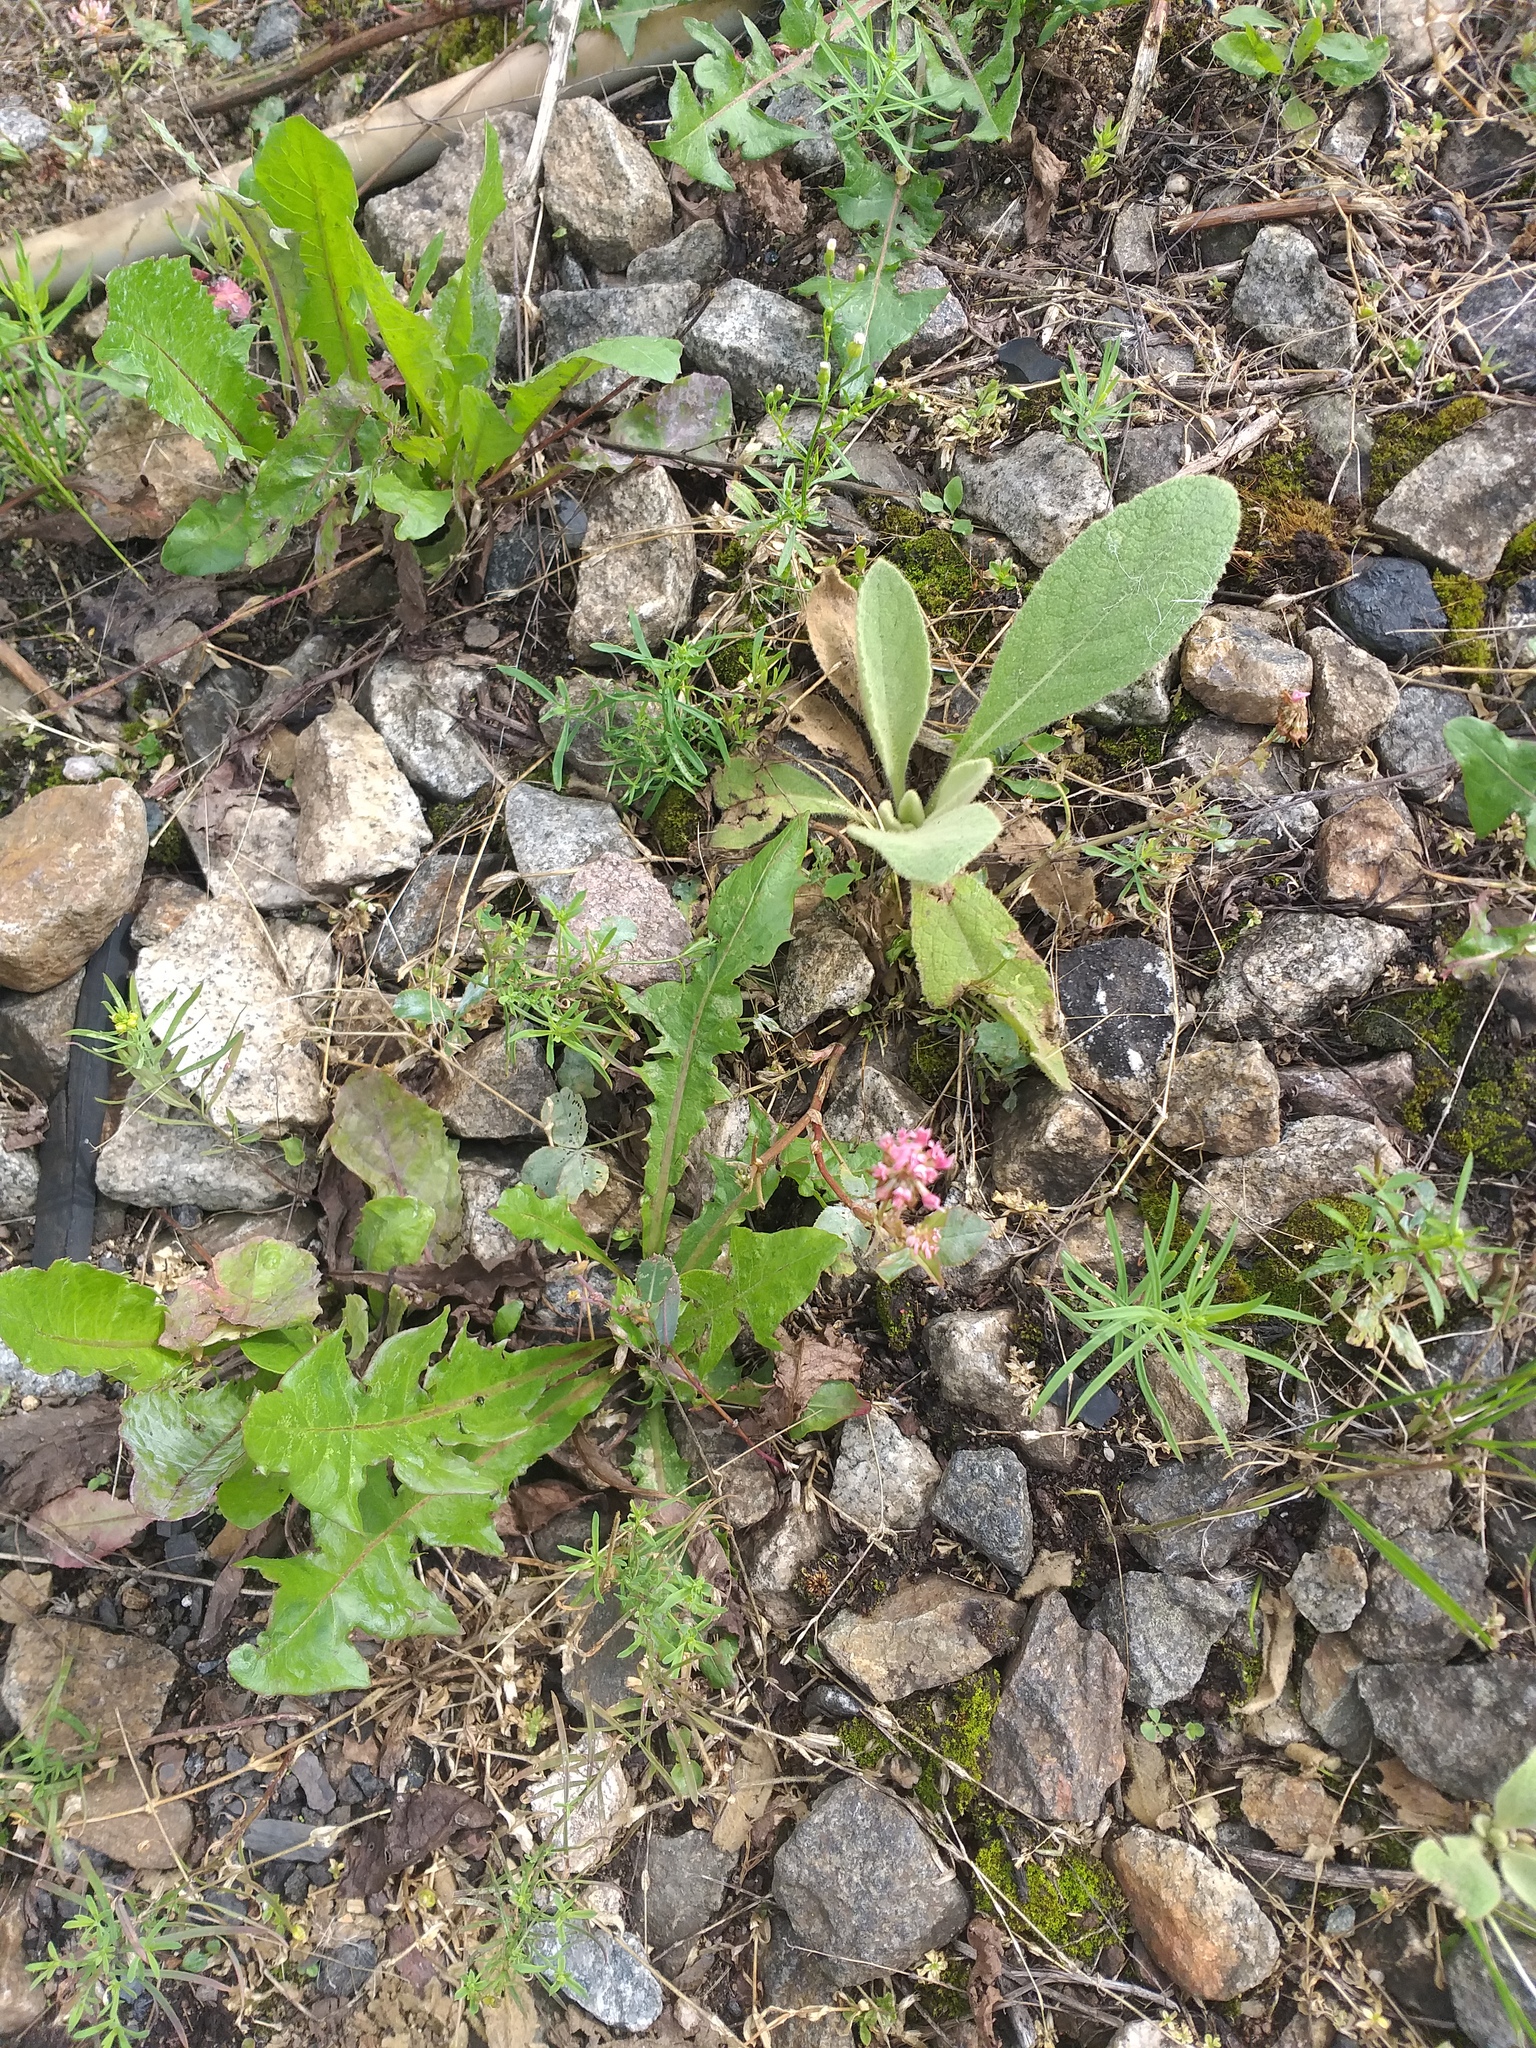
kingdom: Plantae
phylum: Tracheophyta
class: Magnoliopsida
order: Fabales
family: Fabaceae
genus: Trifolium
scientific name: Trifolium hybridum
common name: Alsike clover
